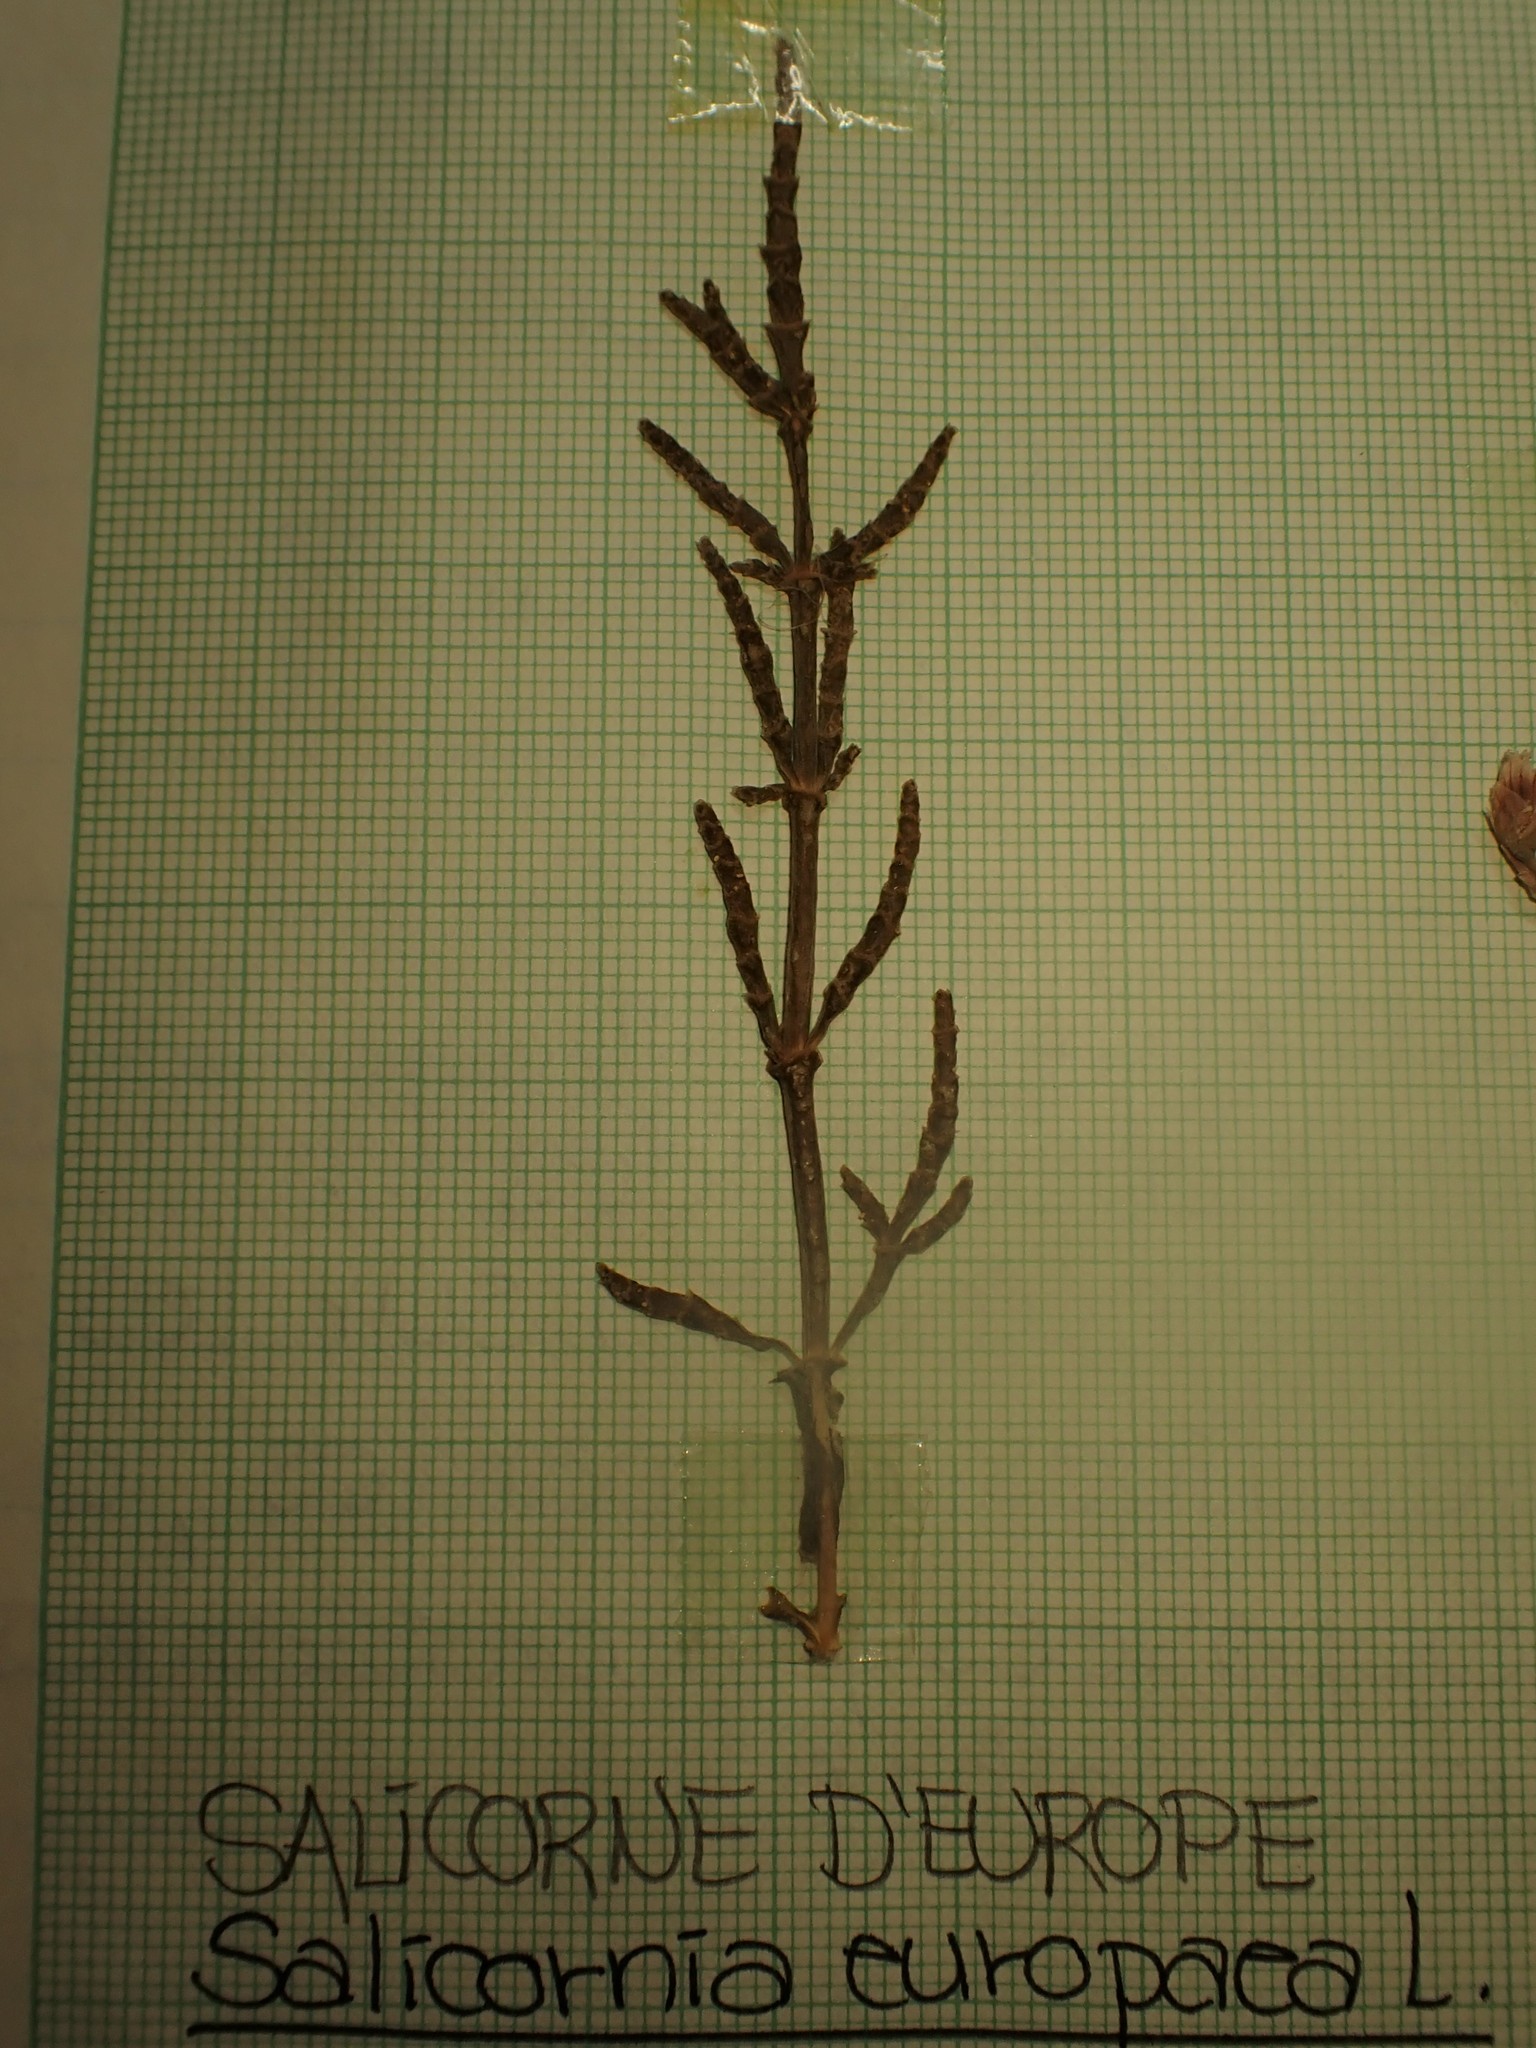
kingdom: Plantae
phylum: Tracheophyta
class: Magnoliopsida
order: Caryophyllales
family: Amaranthaceae
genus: Salicornia
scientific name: Salicornia europaea
